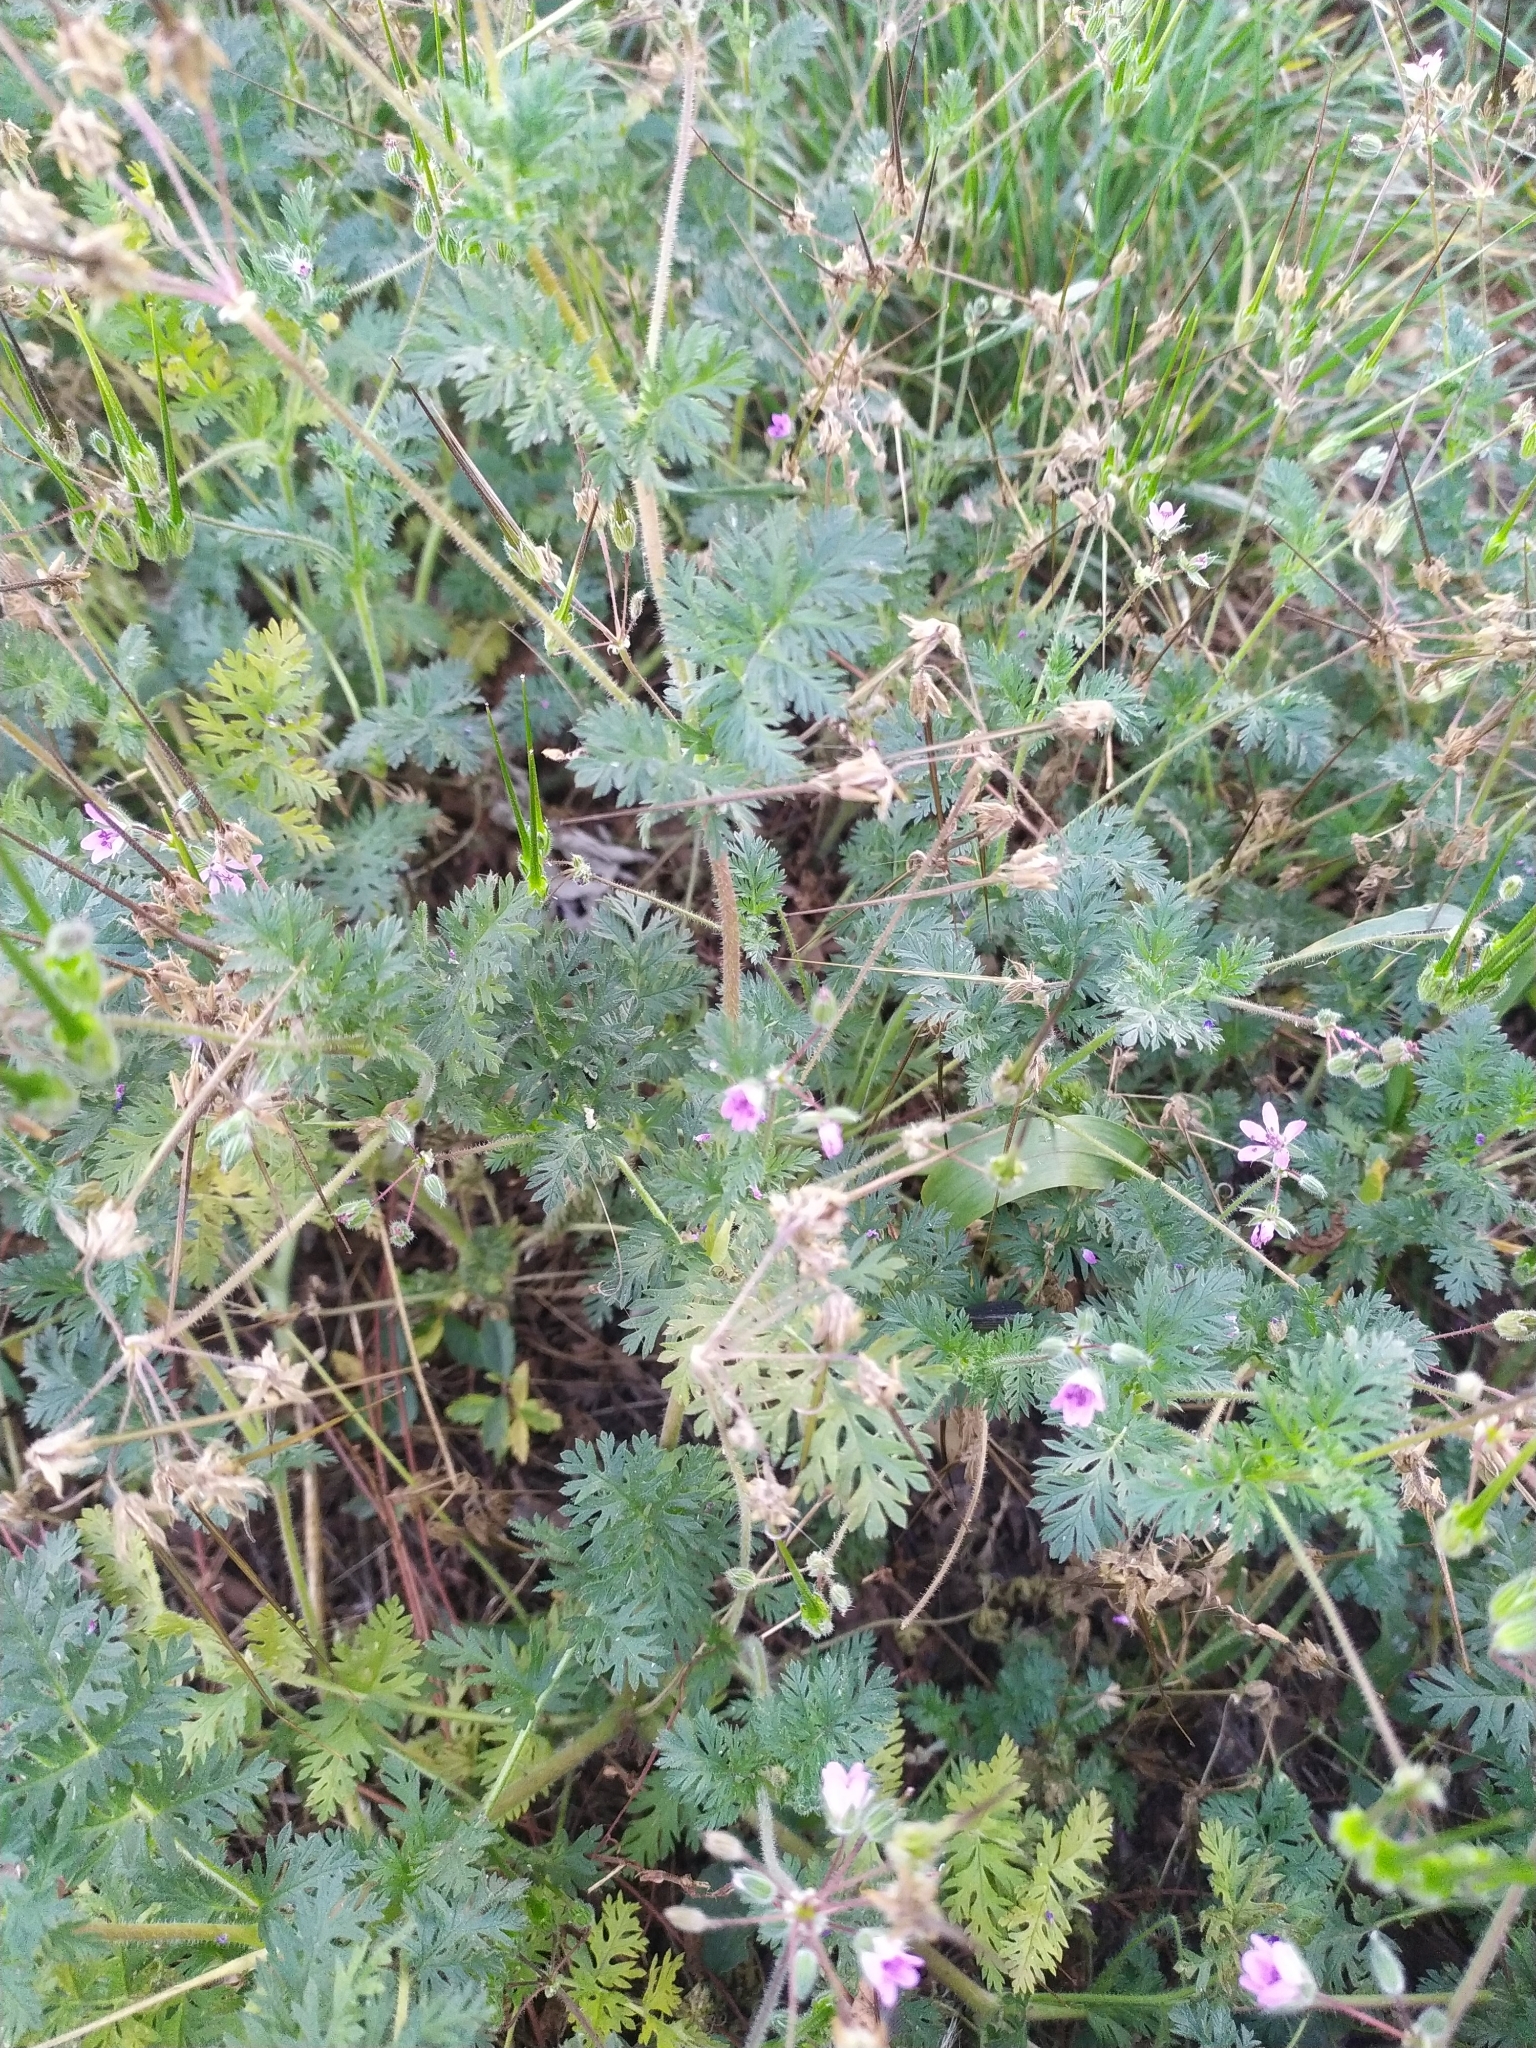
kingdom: Plantae
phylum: Tracheophyta
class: Magnoliopsida
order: Geraniales
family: Geraniaceae
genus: Erodium
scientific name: Erodium cicutarium
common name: Common stork's-bill
